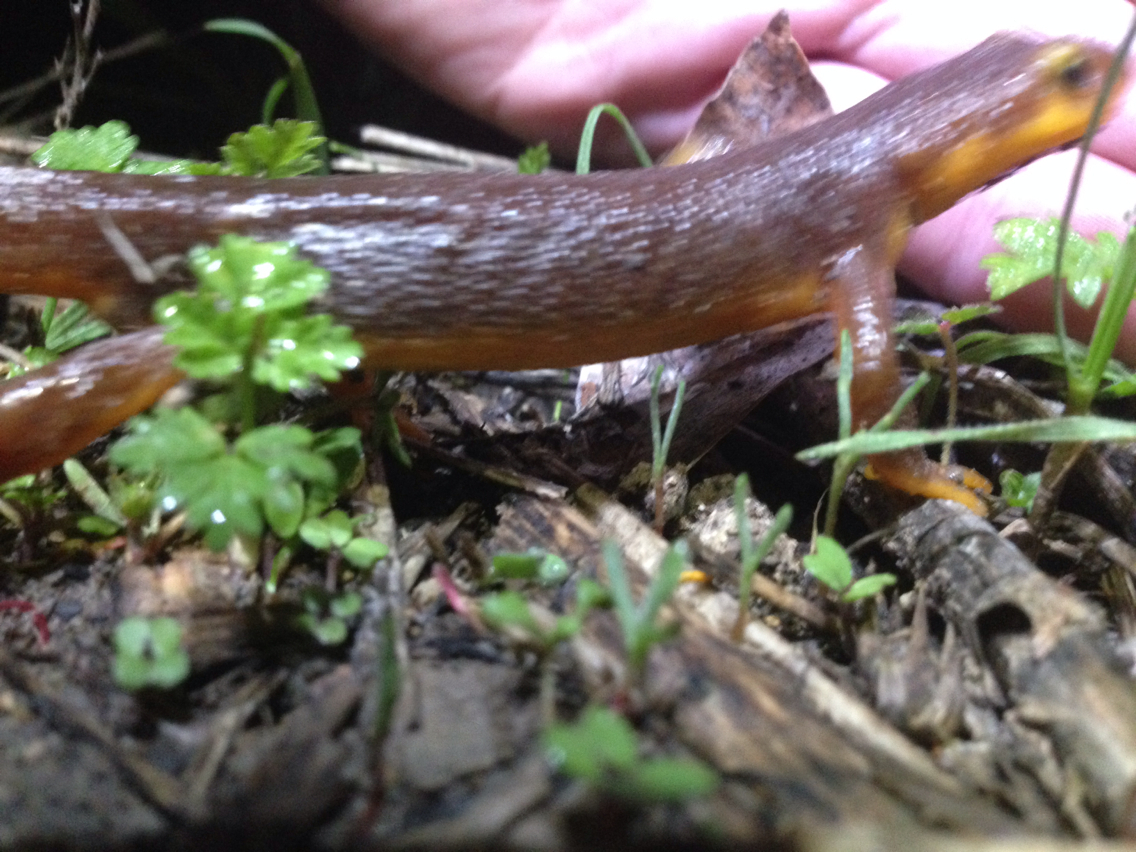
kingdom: Animalia
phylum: Chordata
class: Amphibia
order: Caudata
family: Salamandridae
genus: Taricha
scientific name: Taricha torosa
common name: California newt
